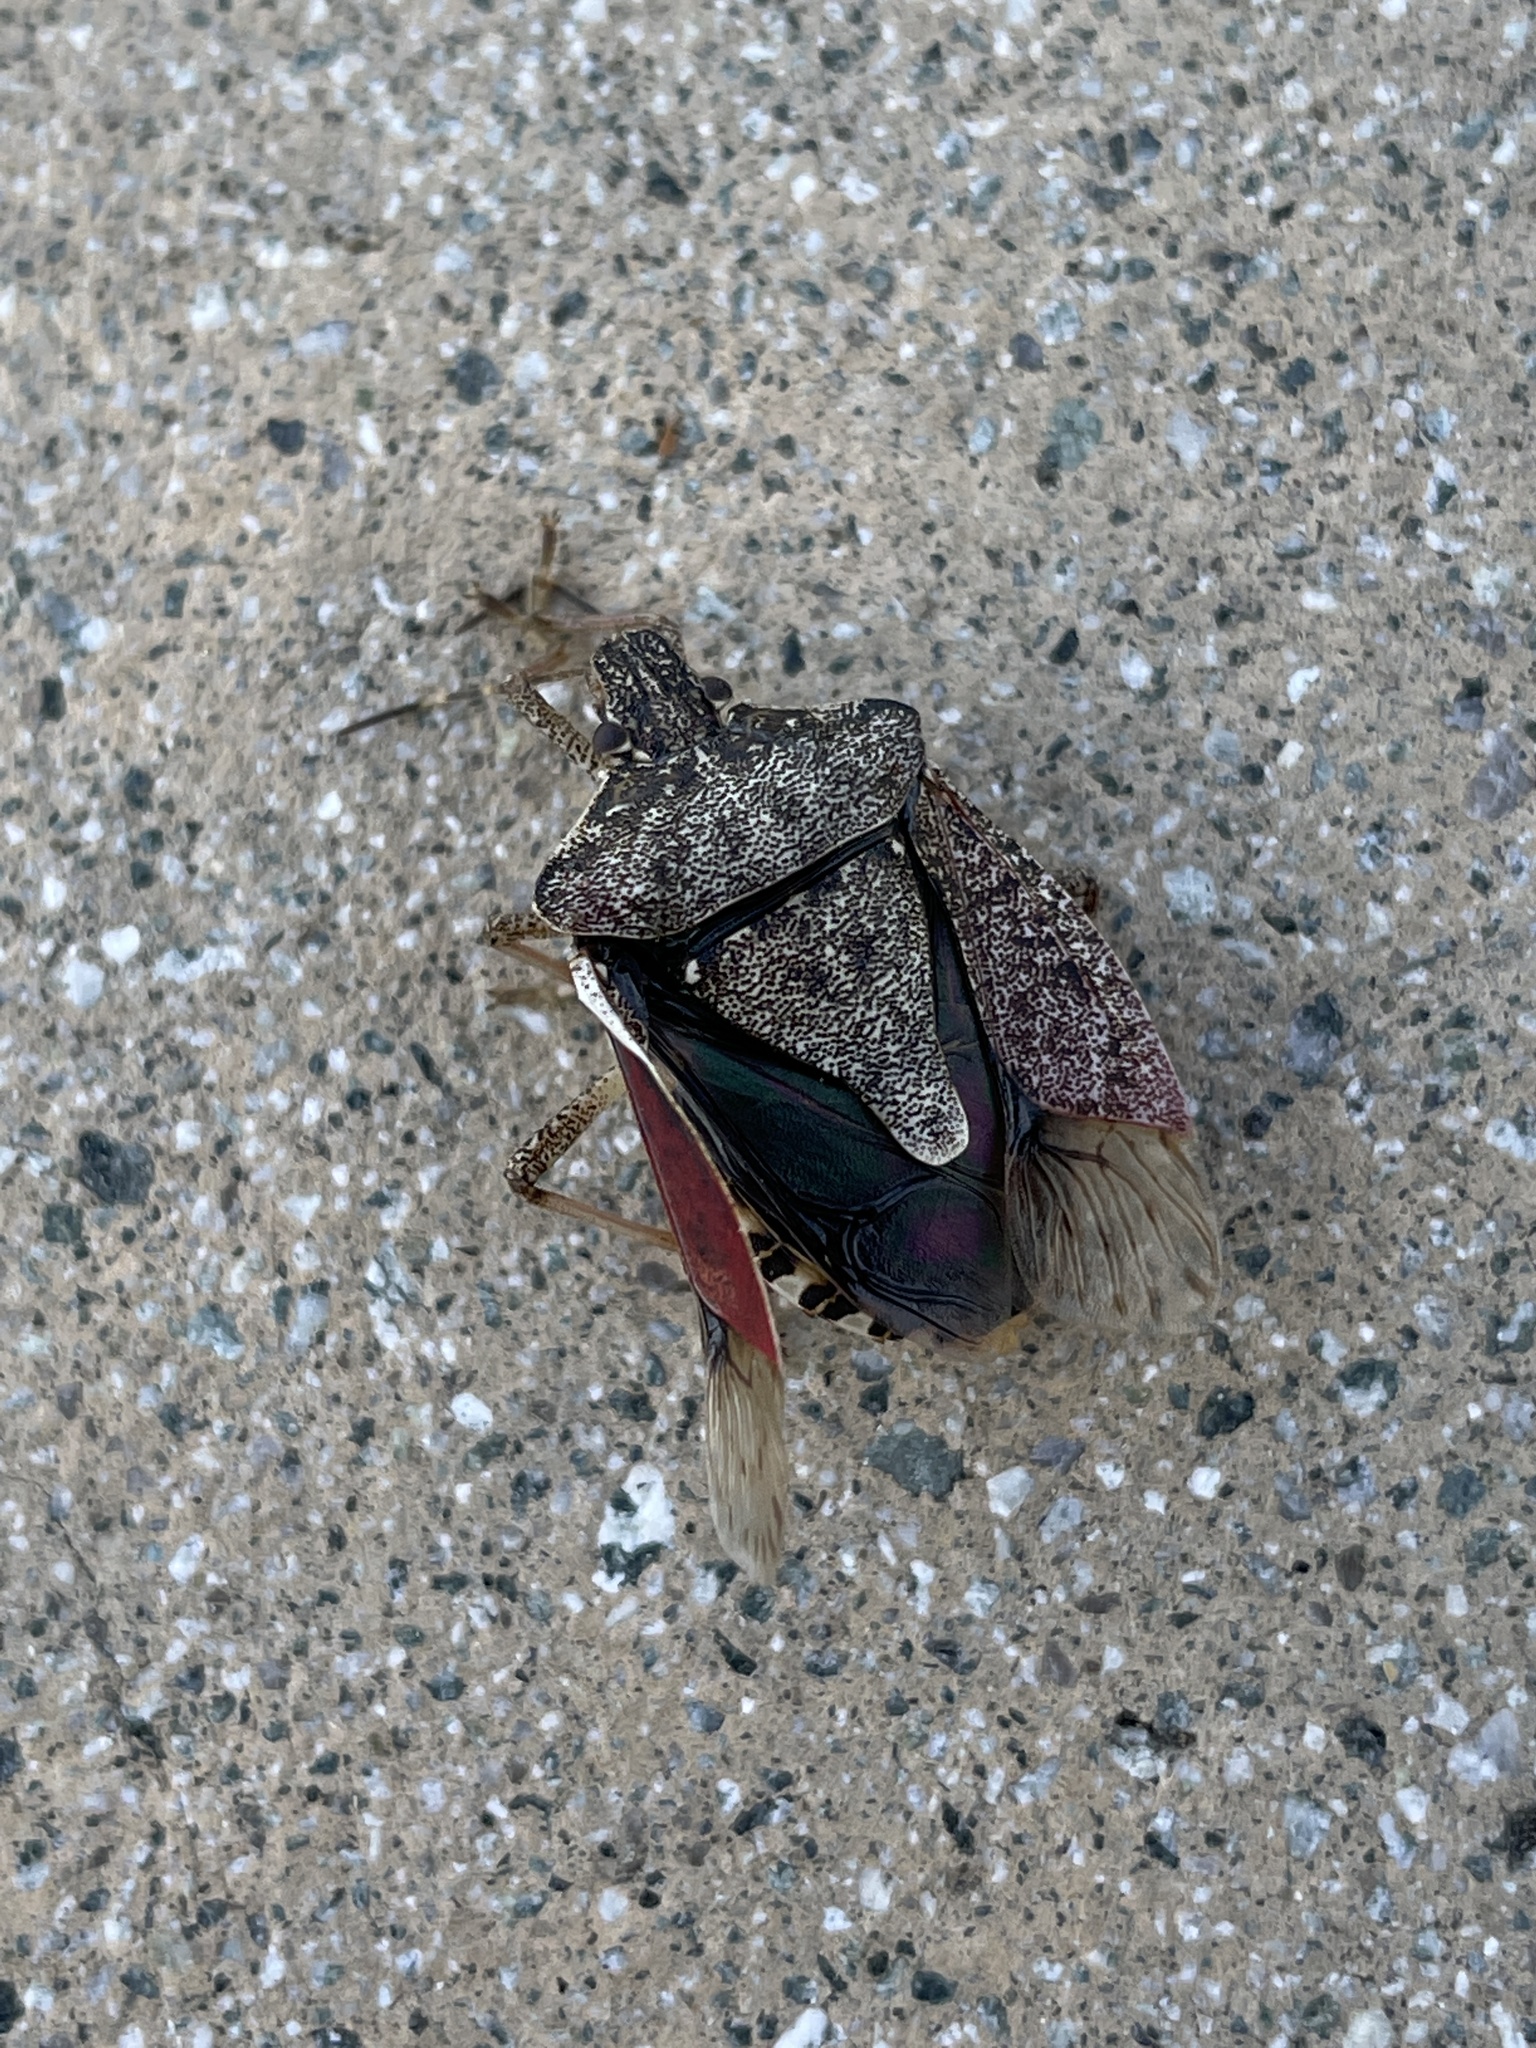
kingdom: Animalia
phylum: Arthropoda
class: Insecta
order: Hemiptera
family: Pentatomidae
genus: Halyomorpha
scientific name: Halyomorpha halys
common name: Brown marmorated stink bug
